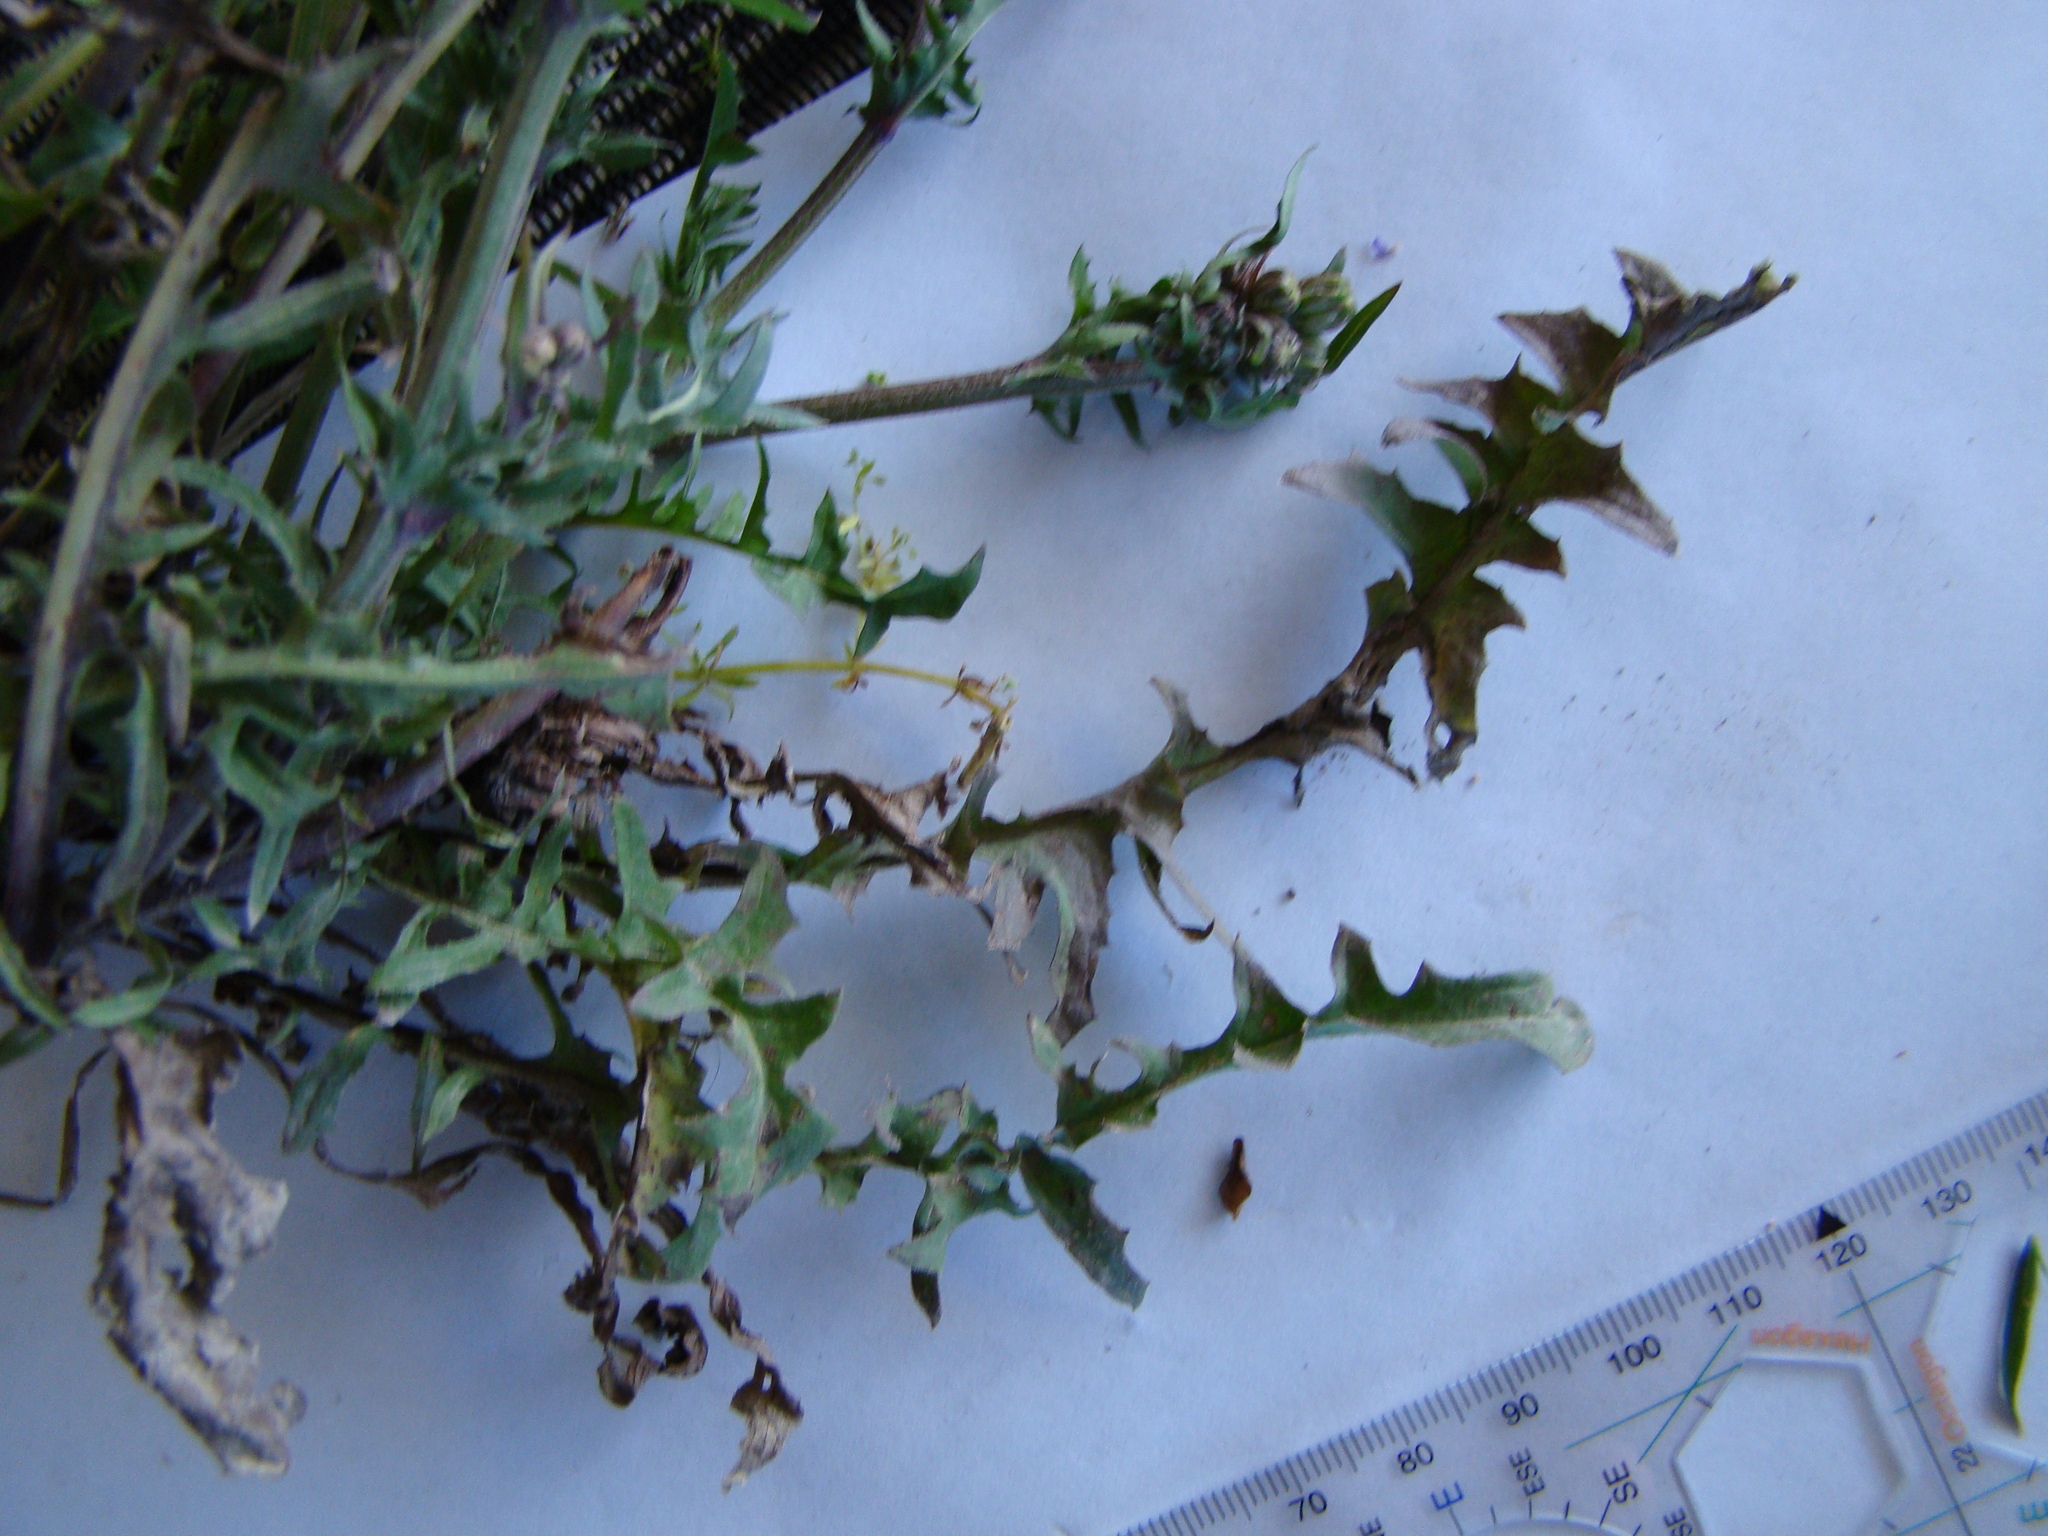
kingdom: Plantae
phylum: Tracheophyta
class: Magnoliopsida
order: Asterales
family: Asteraceae
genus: Sonchus
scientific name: Sonchus asper
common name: Prickly sow-thistle
